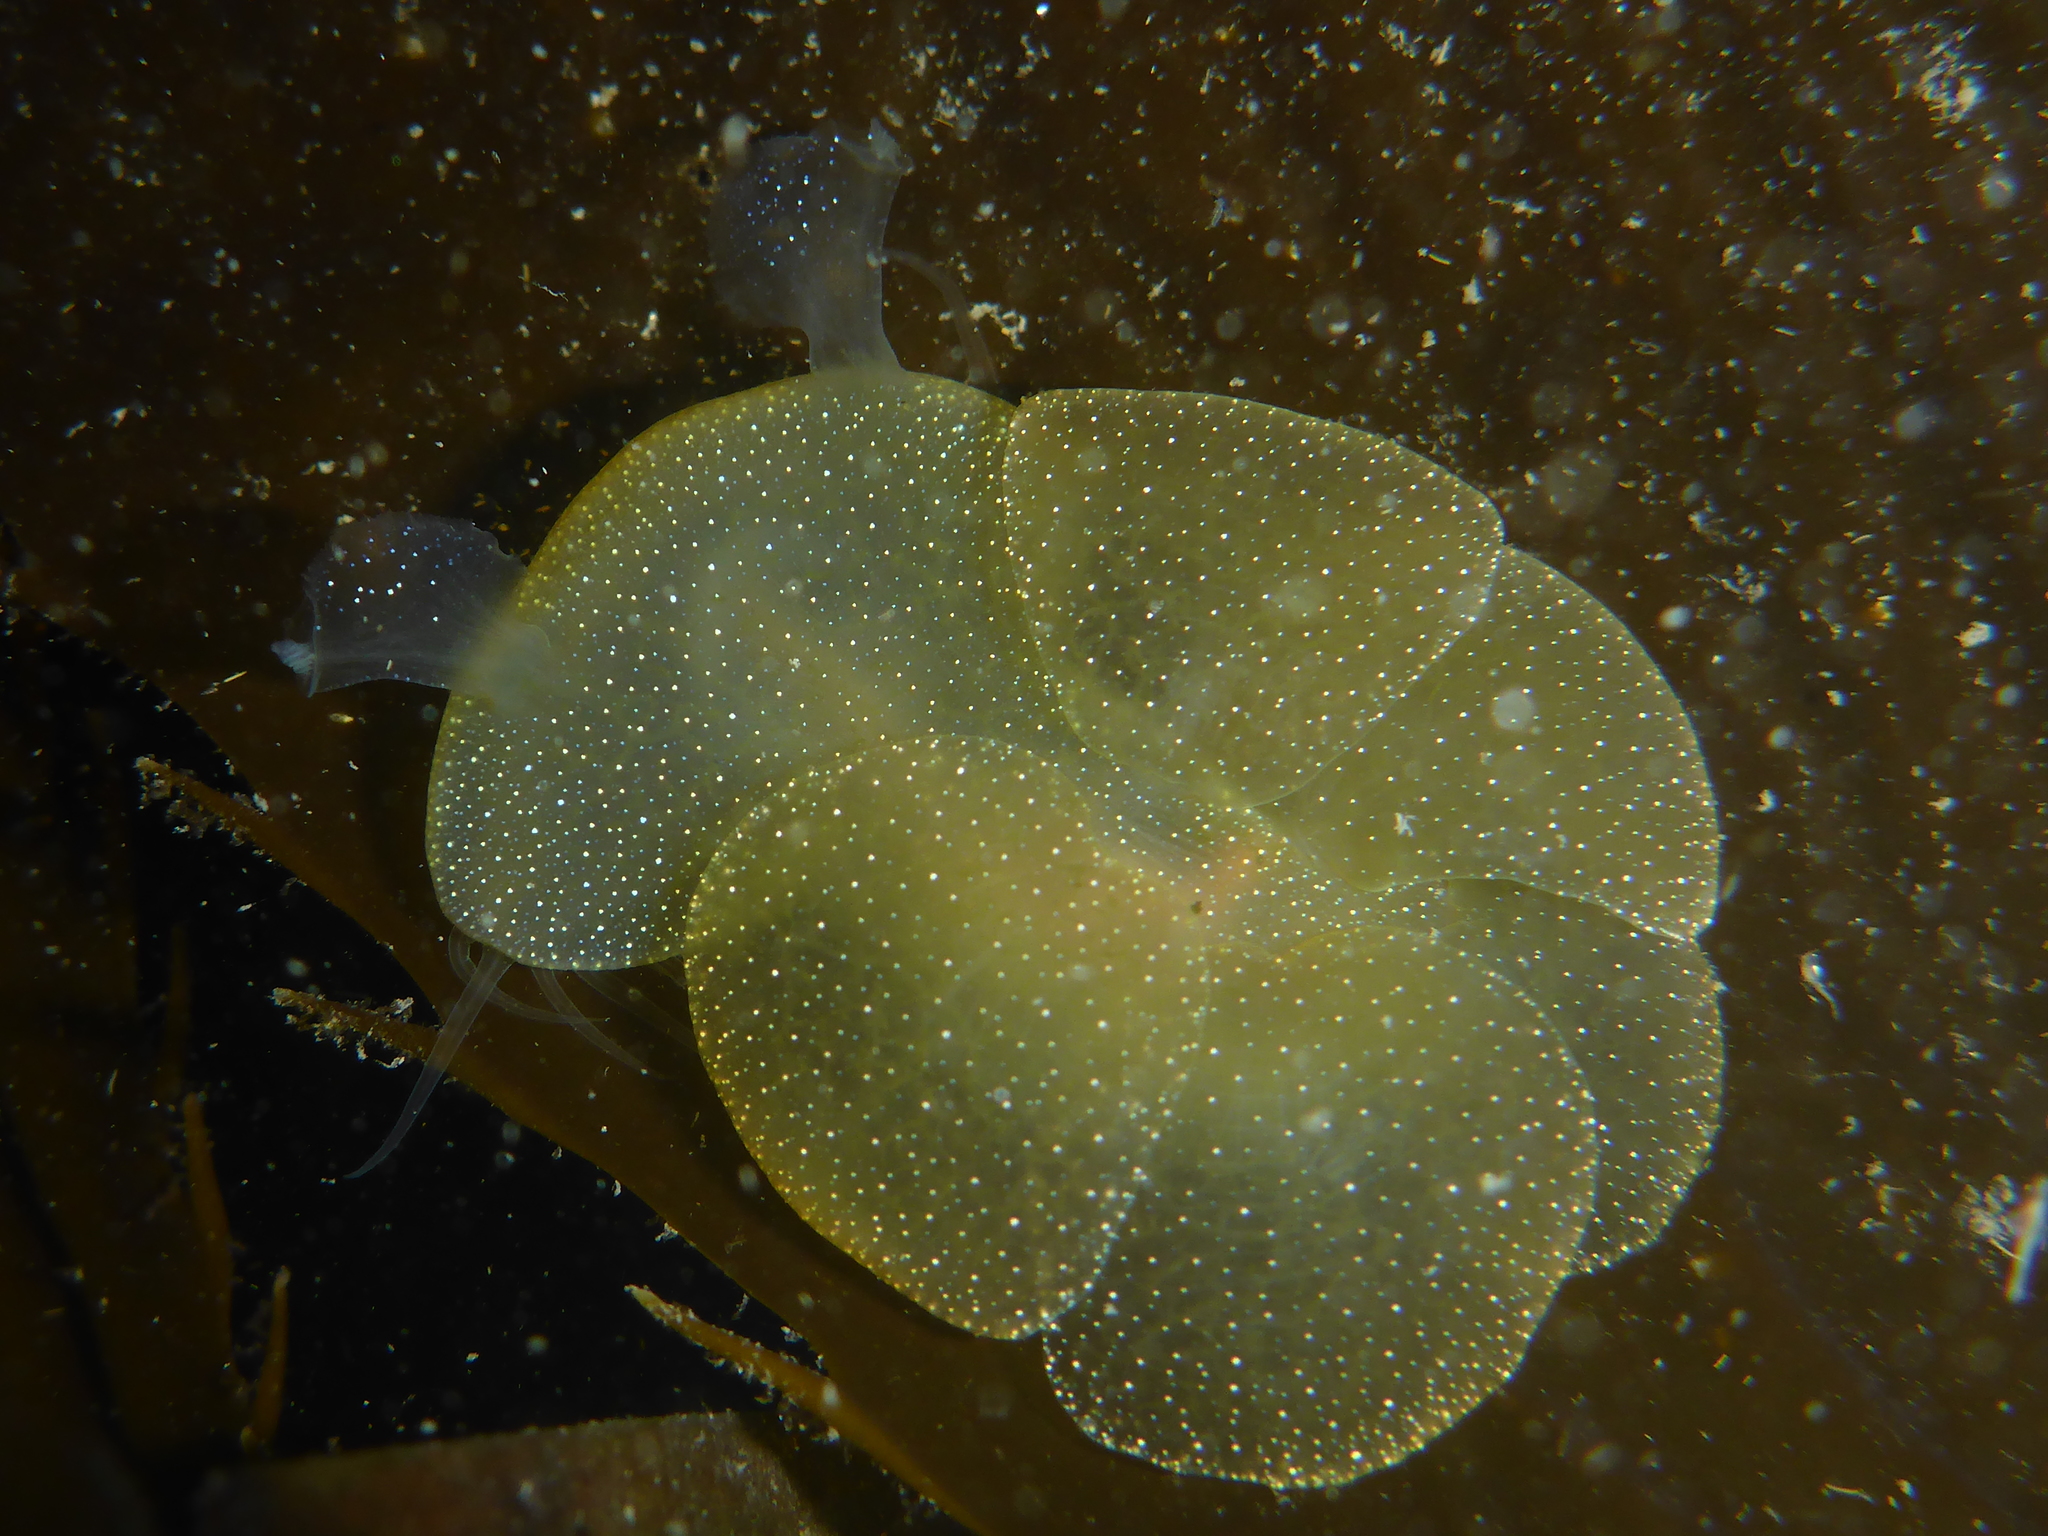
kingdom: Animalia
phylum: Mollusca
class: Gastropoda
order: Nudibranchia
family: Tethydidae
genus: Melibe
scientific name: Melibe leonina
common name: Lion nudibranch
